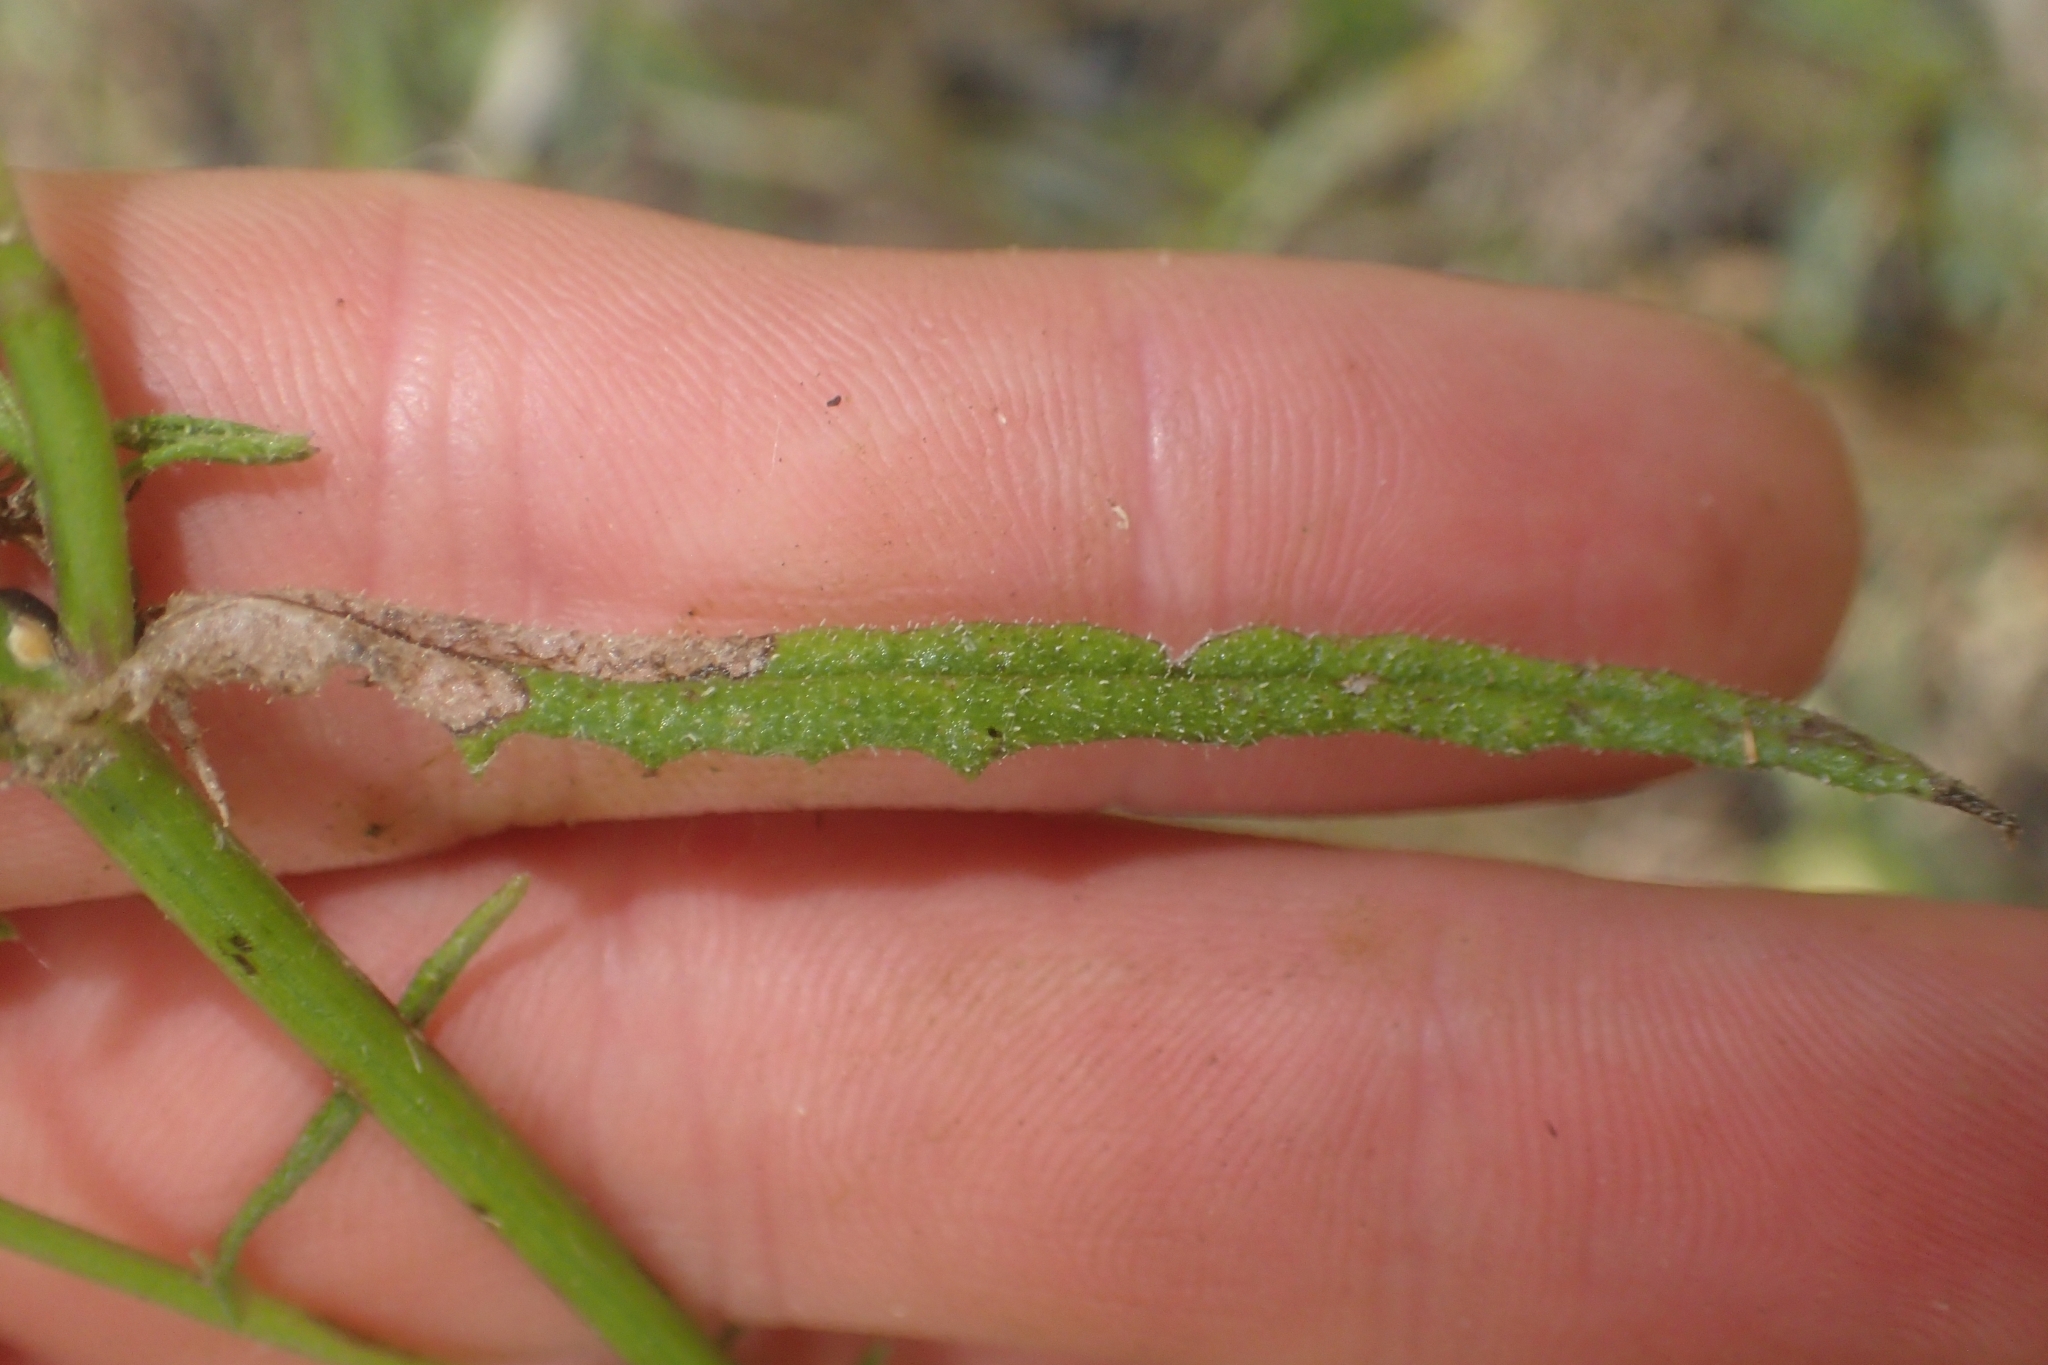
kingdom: Plantae
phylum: Tracheophyta
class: Magnoliopsida
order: Asterales
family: Asteraceae
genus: Senecio
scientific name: Senecio hispidulus
